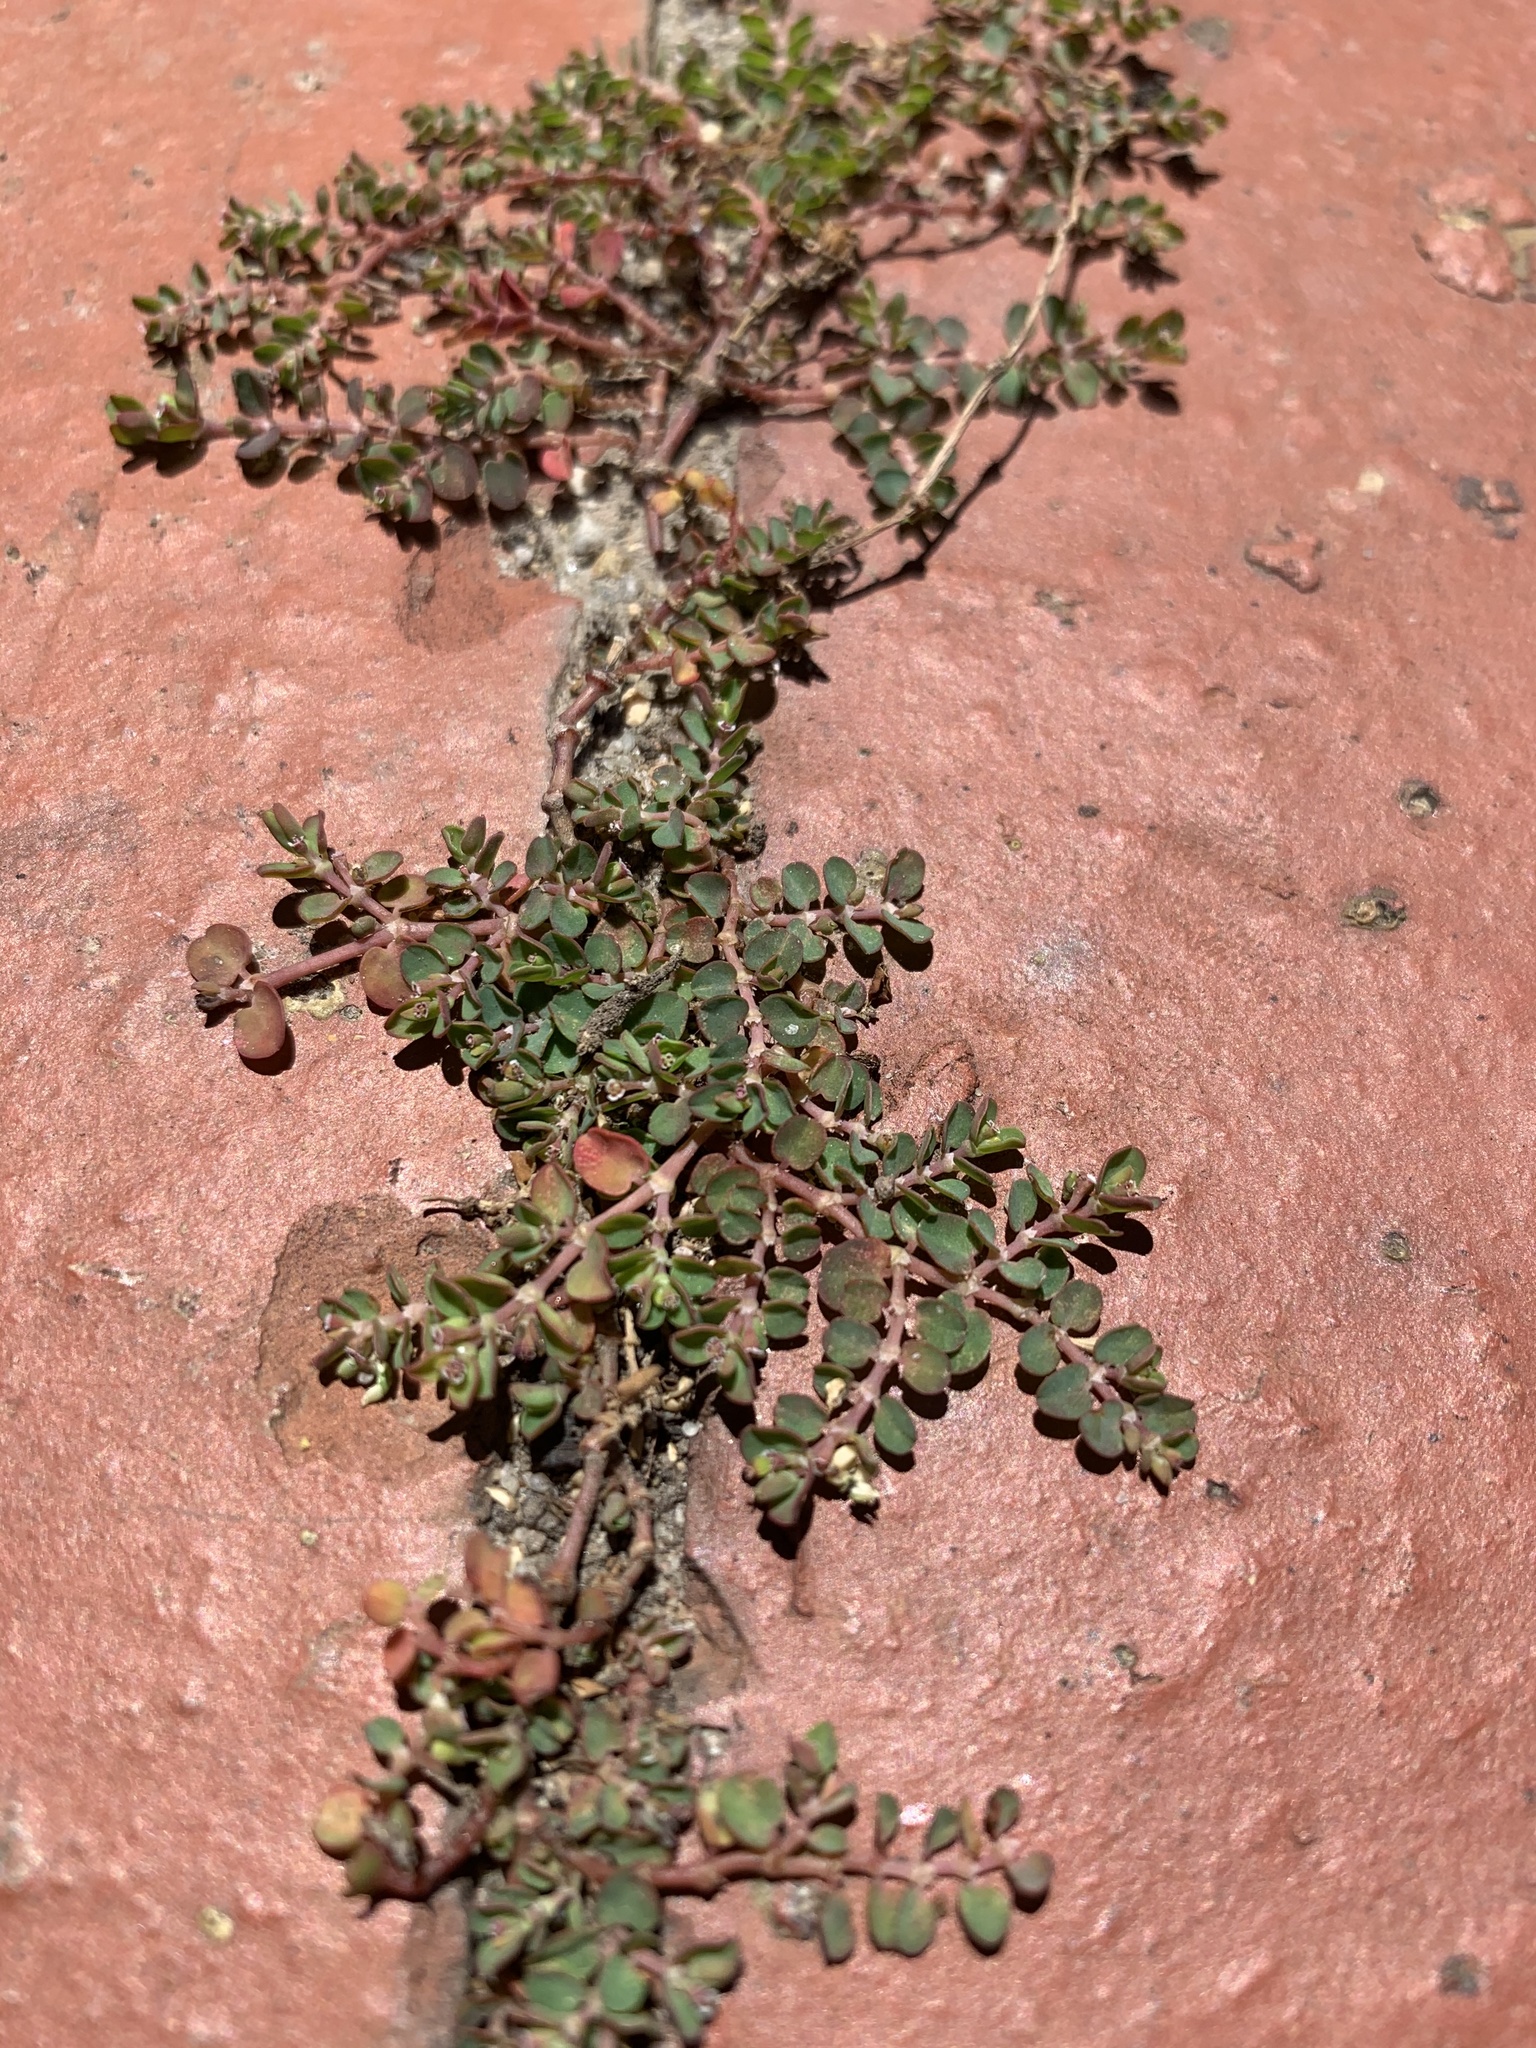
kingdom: Plantae
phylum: Tracheophyta
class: Magnoliopsida
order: Malpighiales
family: Euphorbiaceae
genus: Euphorbia
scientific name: Euphorbia serpens
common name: Matted sandmat
